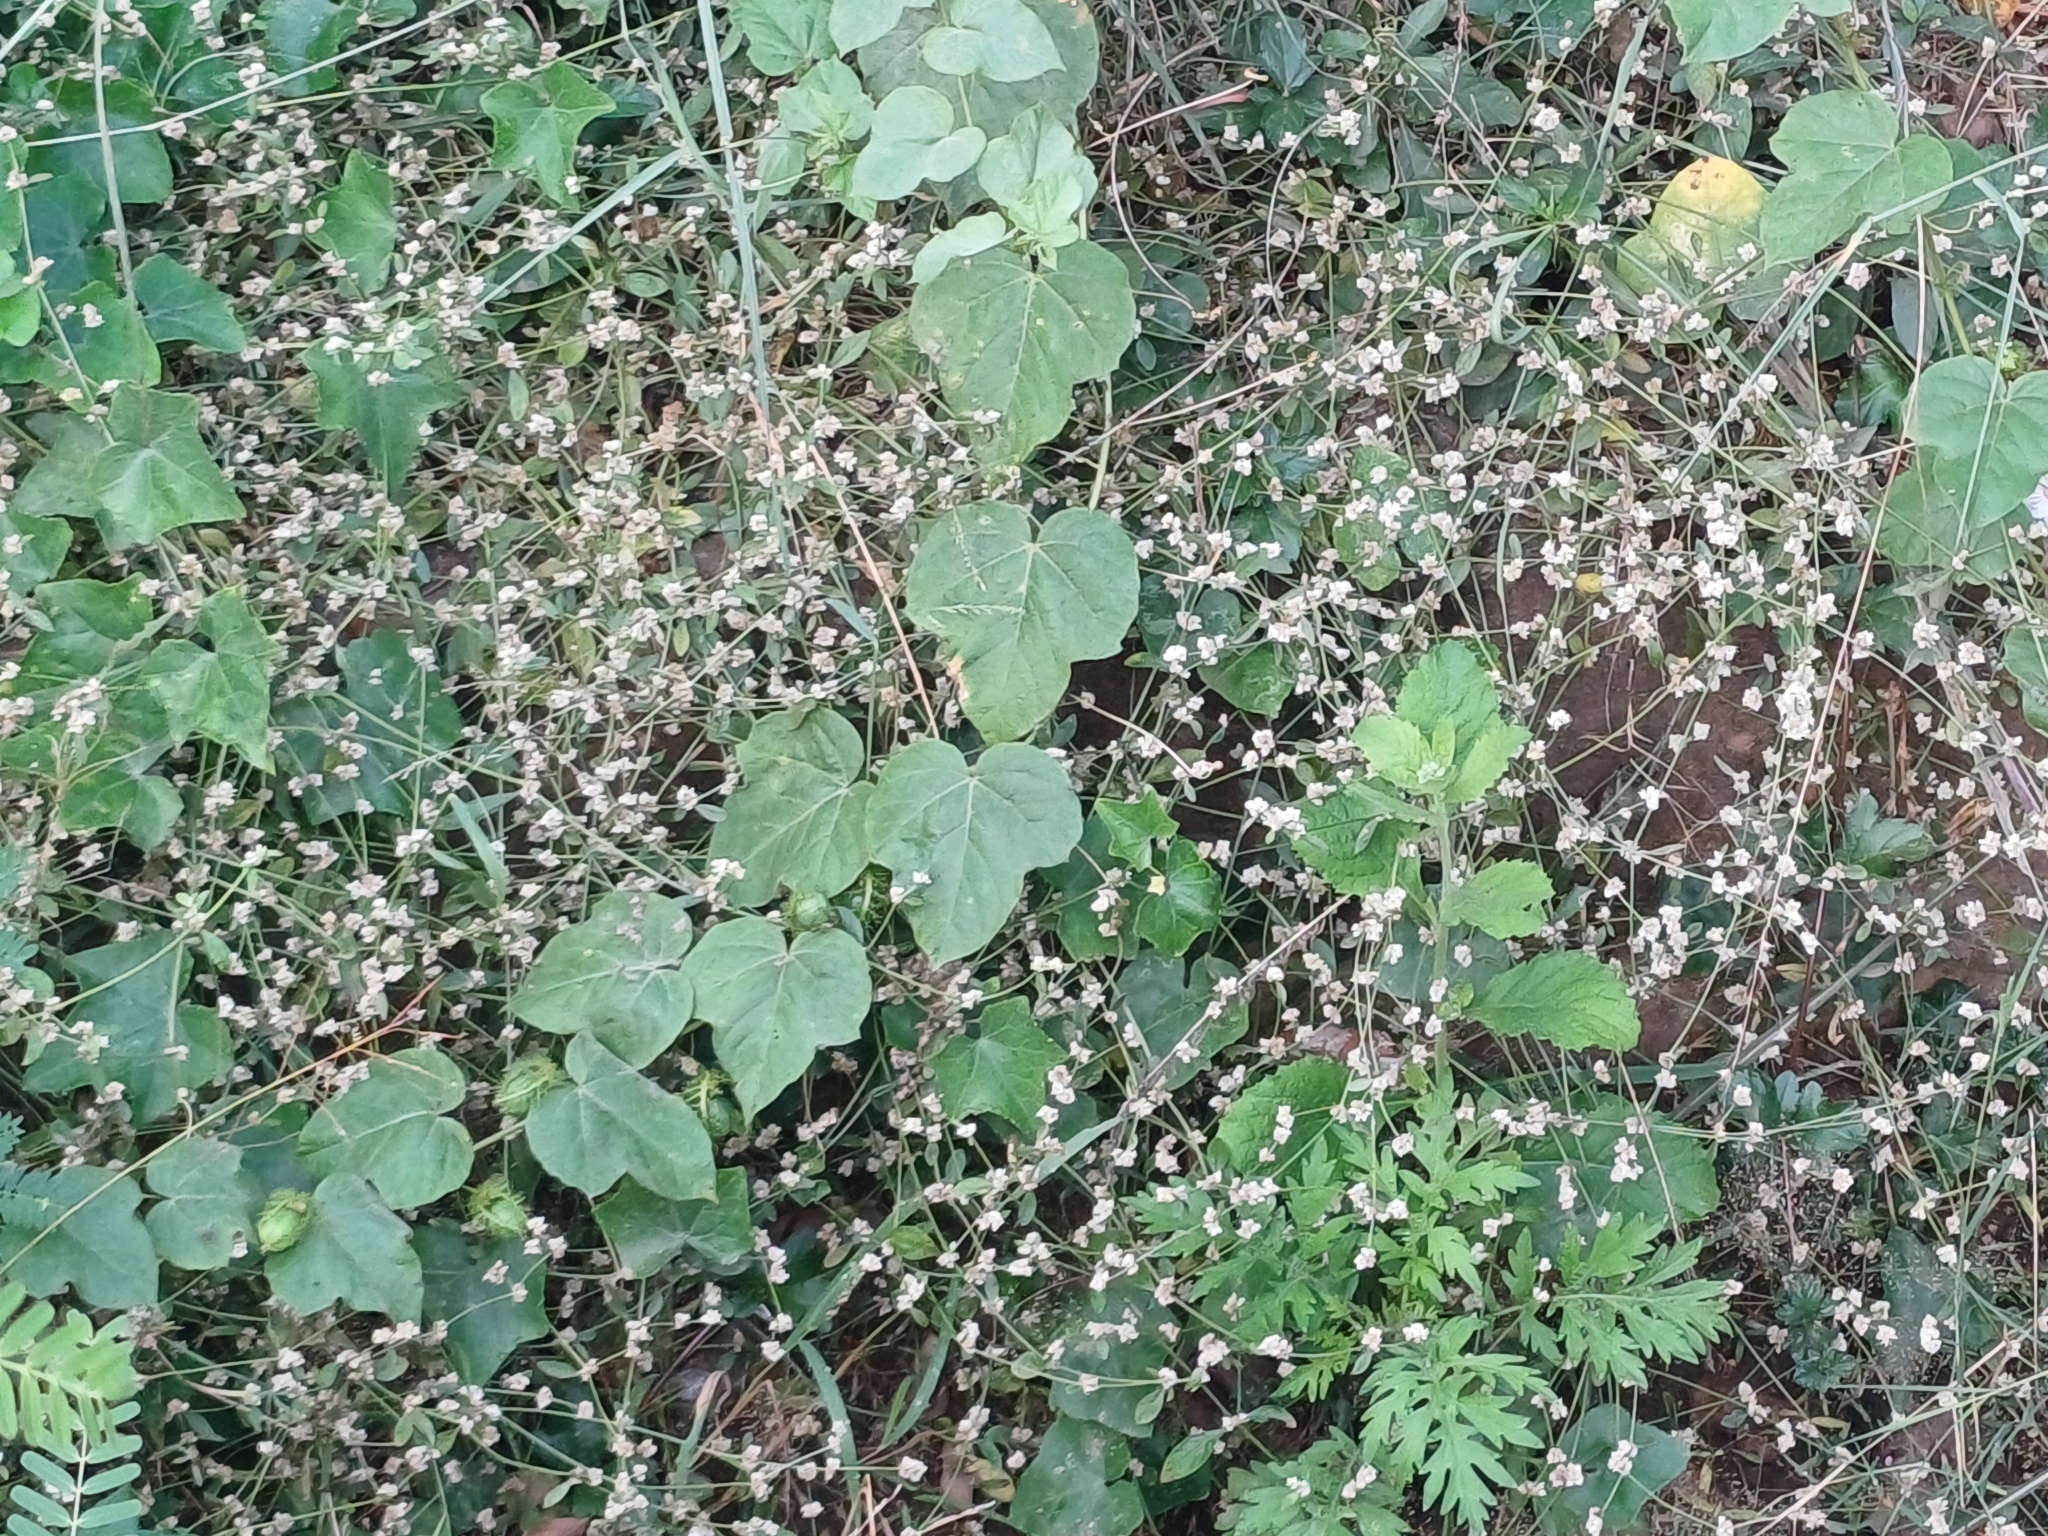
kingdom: Plantae
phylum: Tracheophyta
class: Magnoliopsida
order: Asterales
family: Asteraceae
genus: Parthenium
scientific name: Parthenium hysterophorus
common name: Santa maria feverfew
